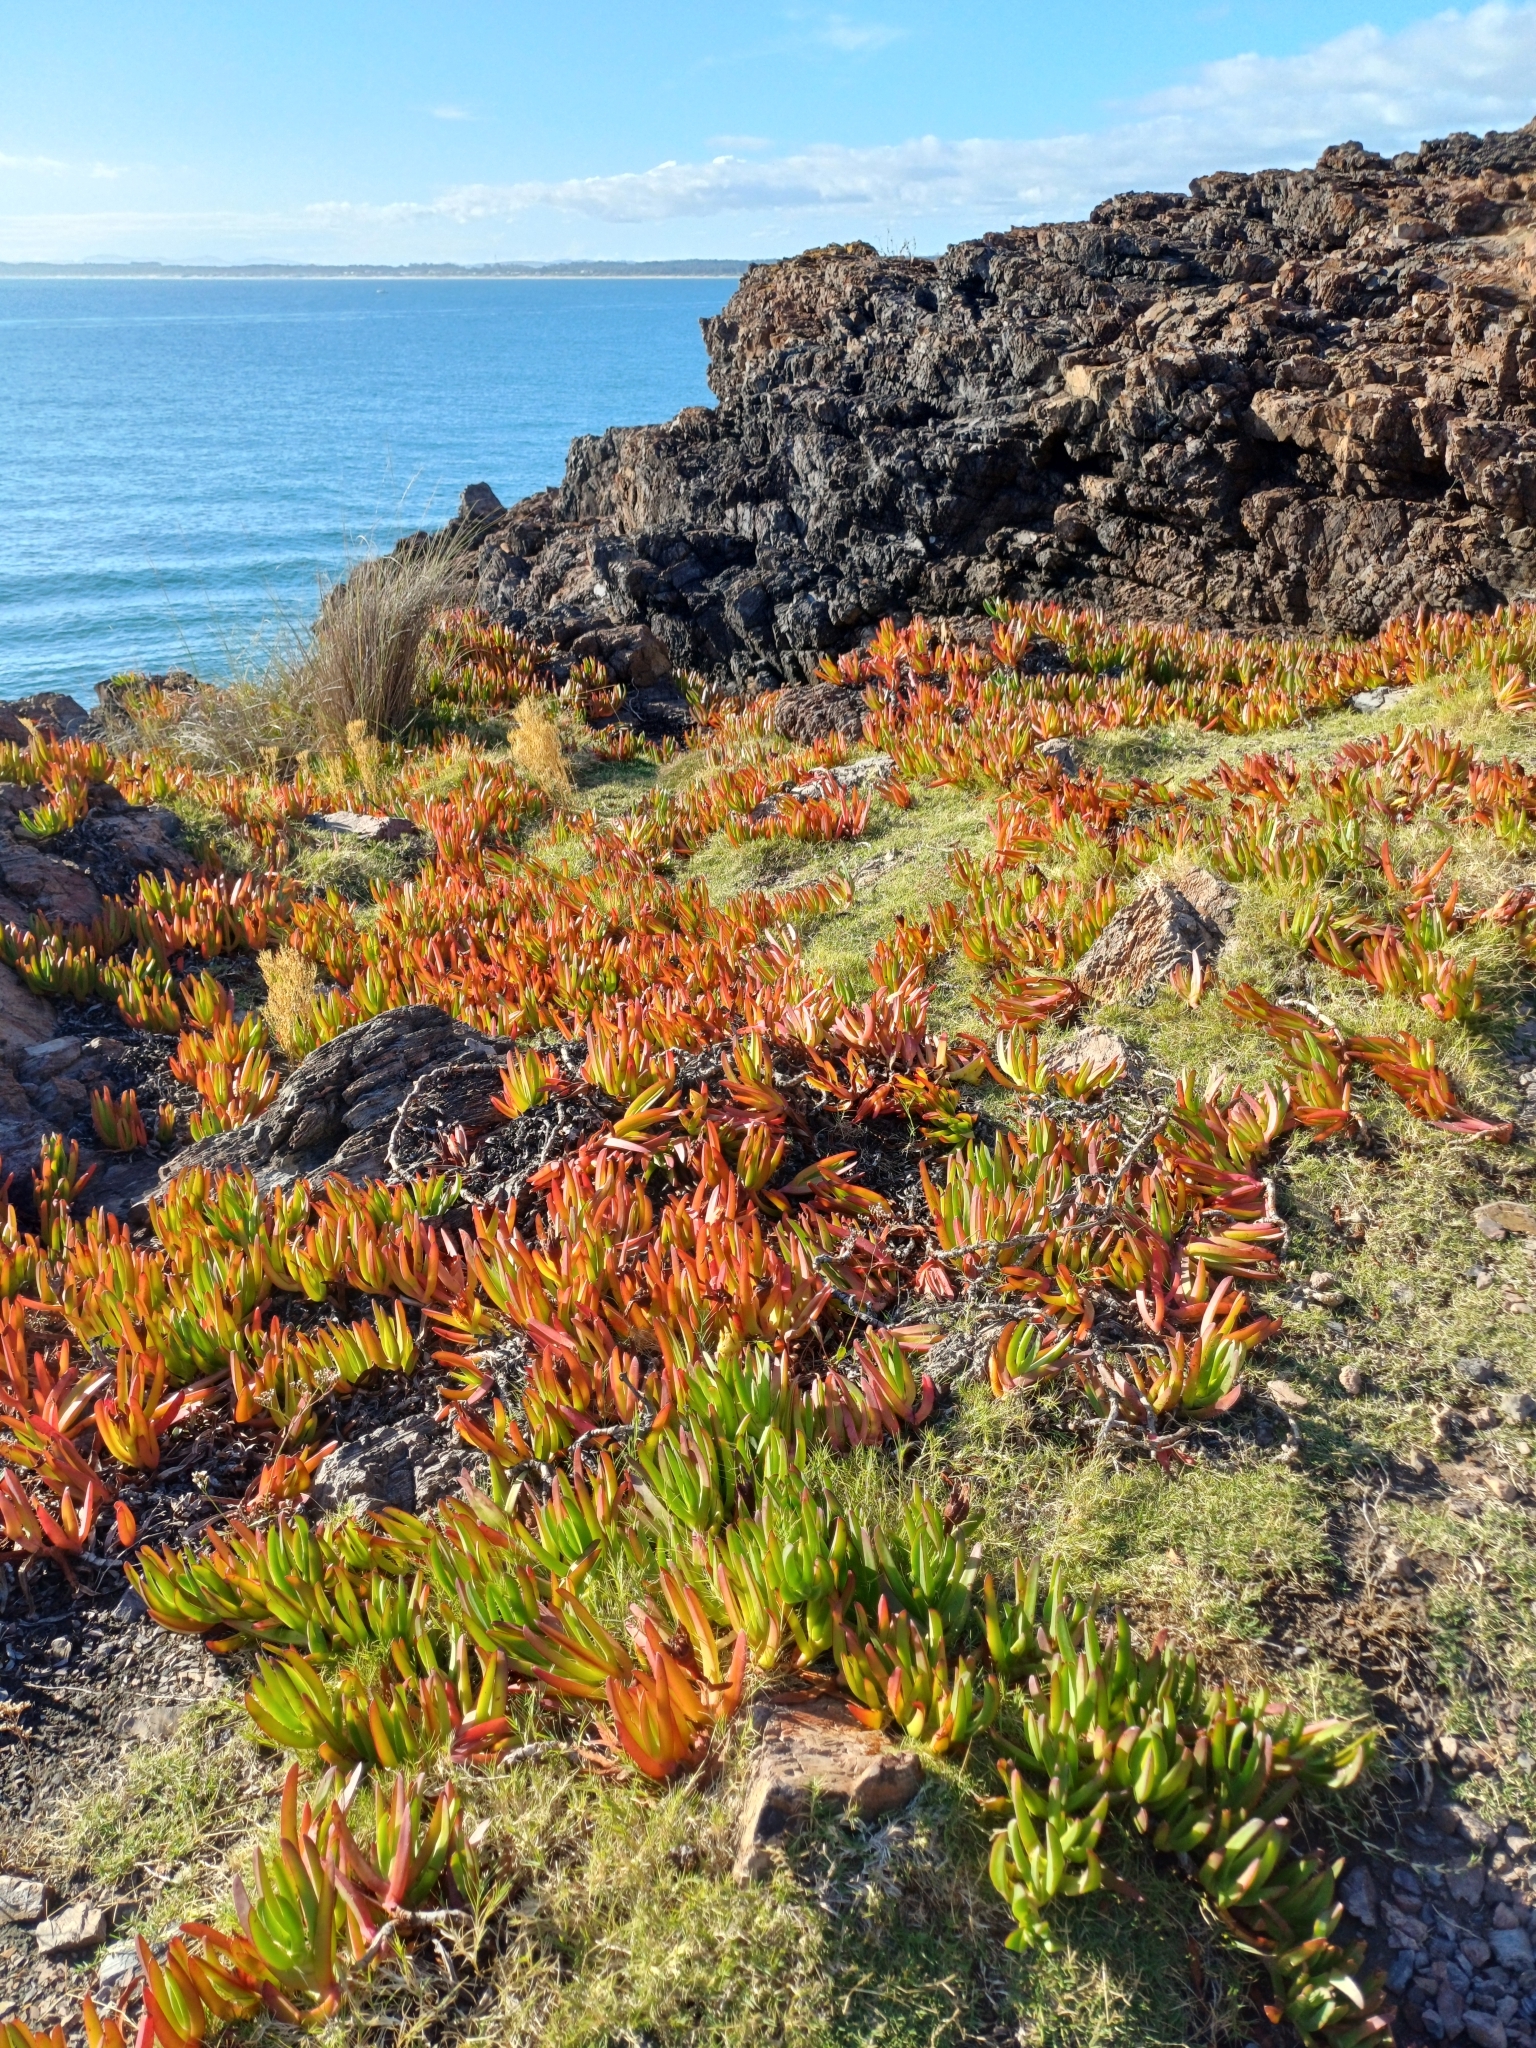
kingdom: Plantae
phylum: Tracheophyta
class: Magnoliopsida
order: Caryophyllales
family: Aizoaceae
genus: Carpobrotus
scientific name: Carpobrotus edulis
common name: Hottentot-fig
